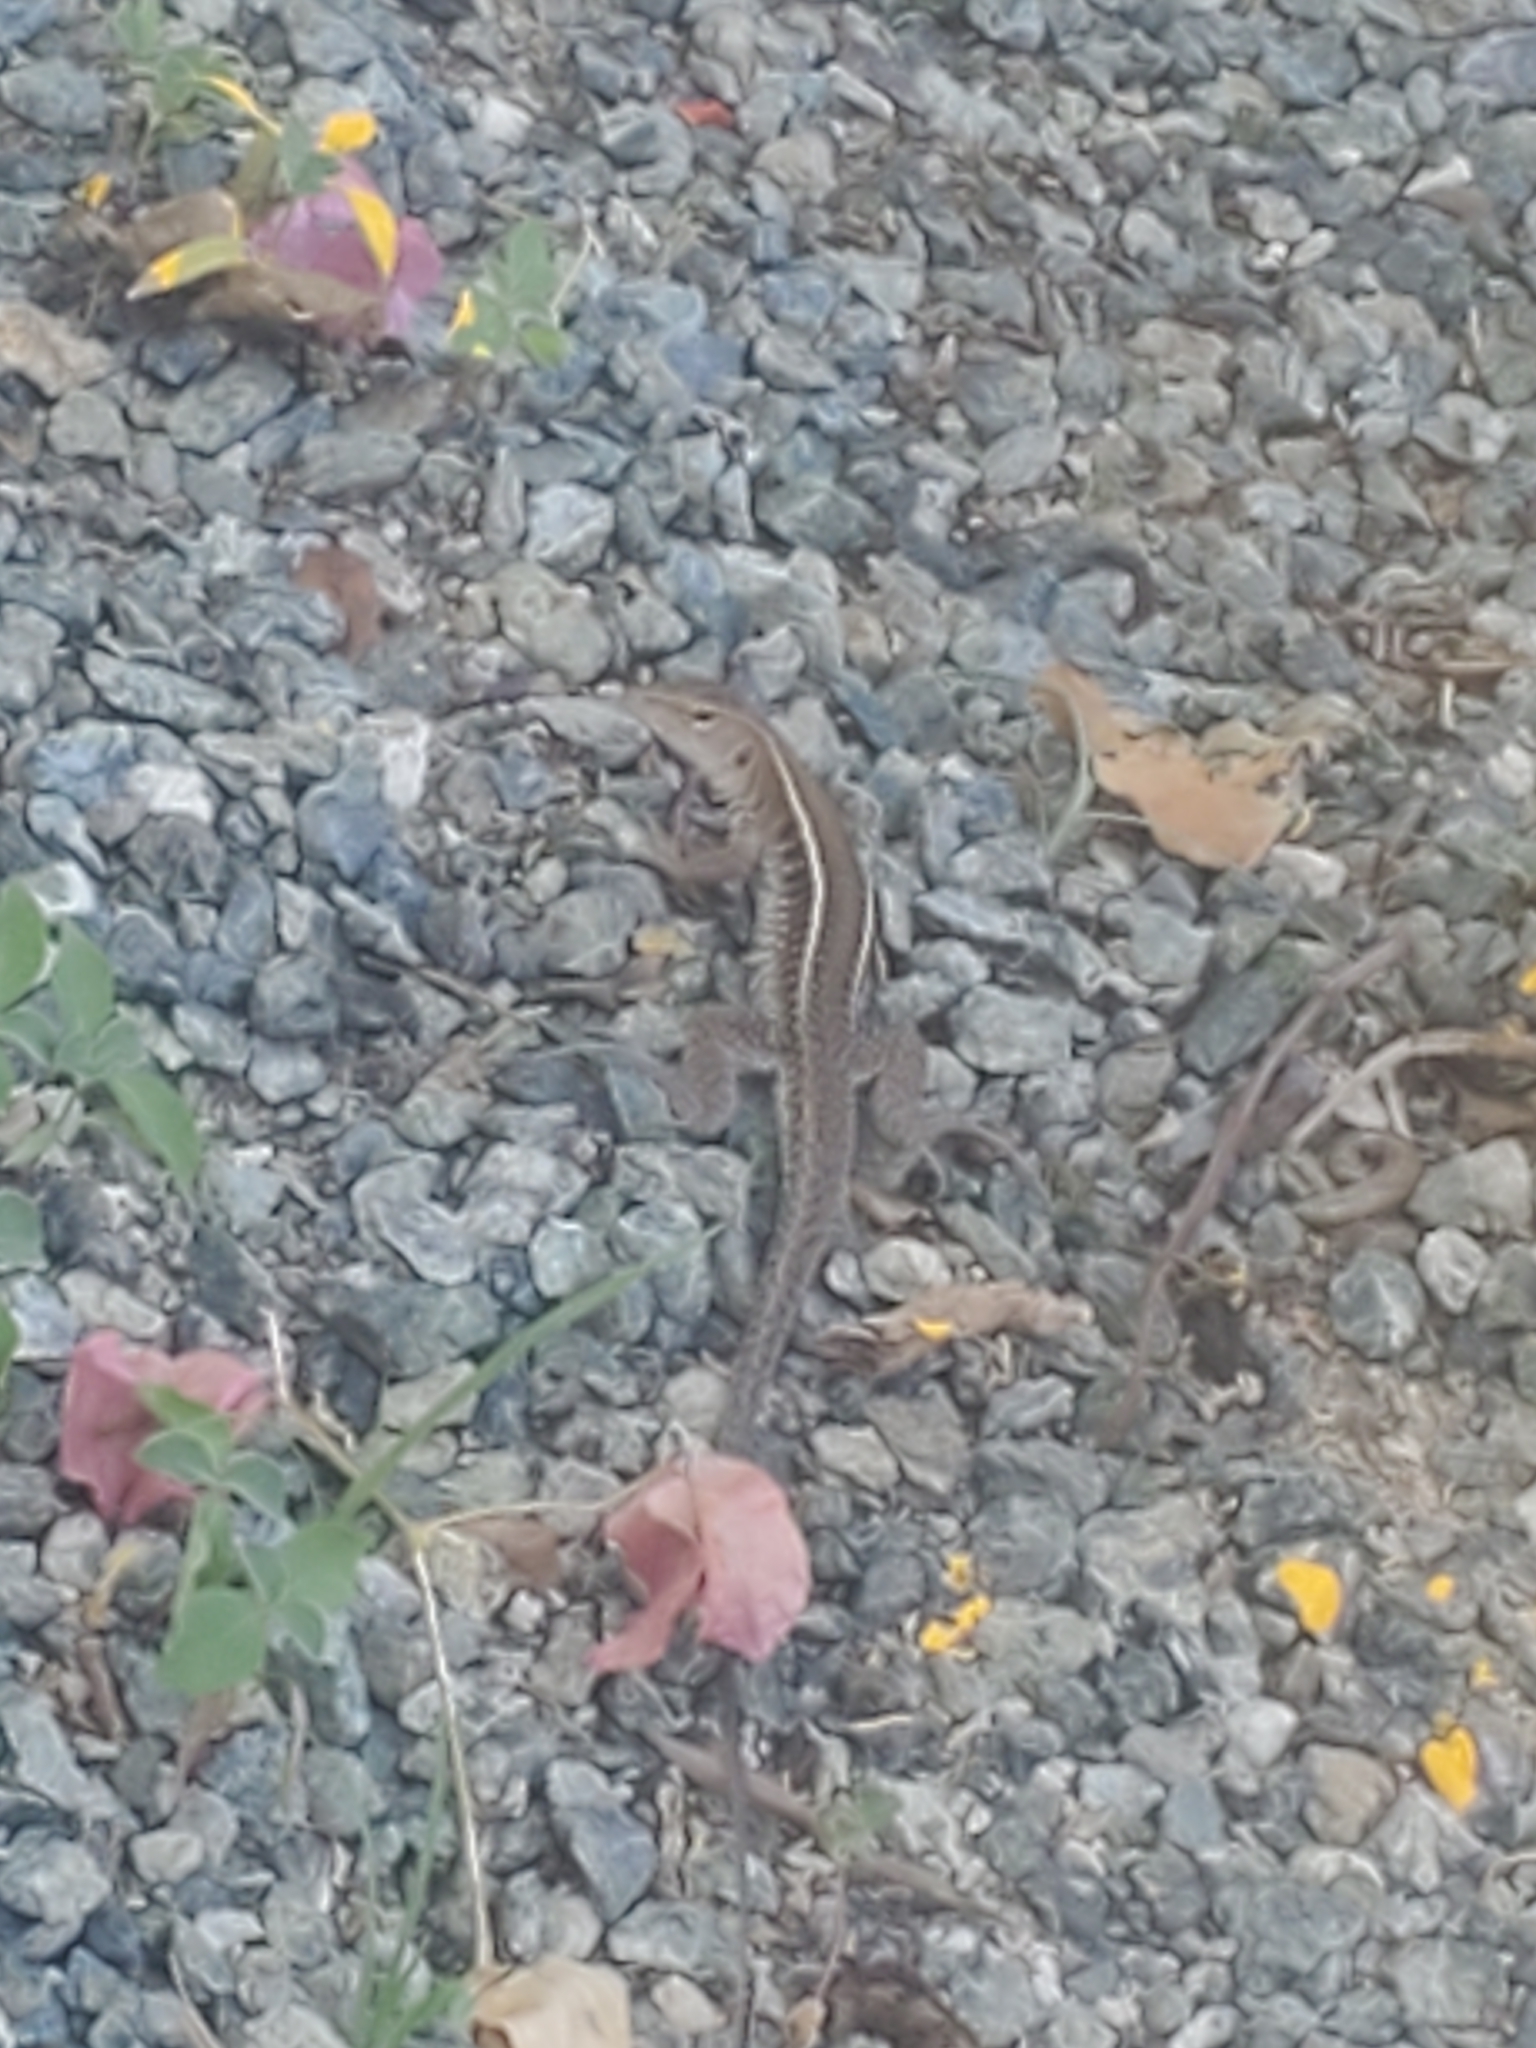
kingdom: Animalia
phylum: Chordata
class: Squamata
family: Teiidae
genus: Pholidoscelis
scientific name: Pholidoscelis exsul
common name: Common puerto rican ameiva
